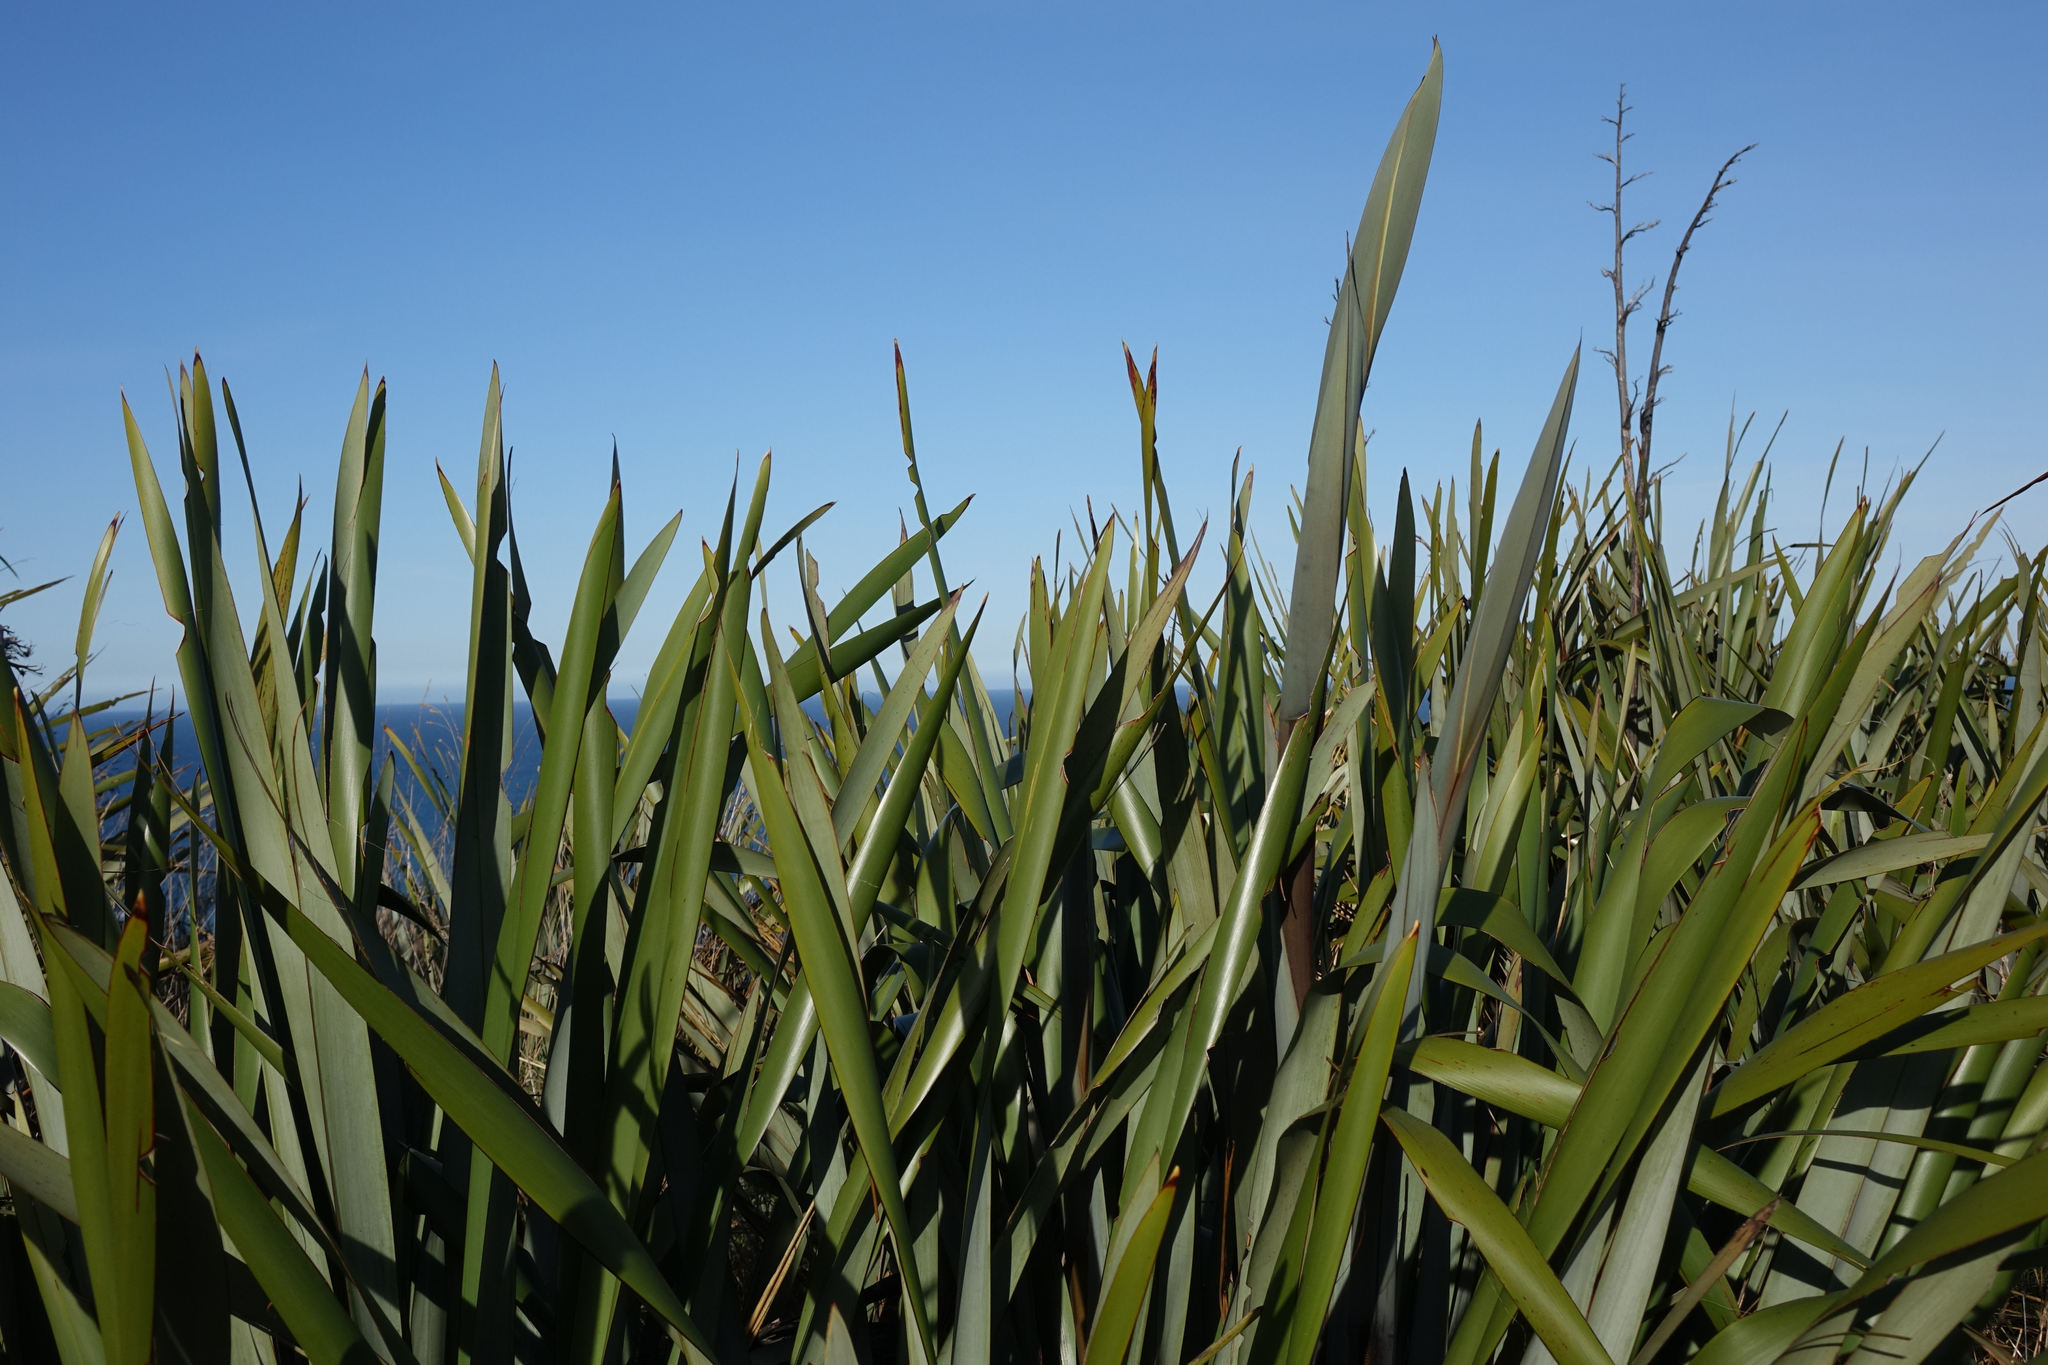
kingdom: Plantae
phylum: Tracheophyta
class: Liliopsida
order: Asparagales
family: Asphodelaceae
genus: Phormium
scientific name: Phormium tenax
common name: New zealand flax
